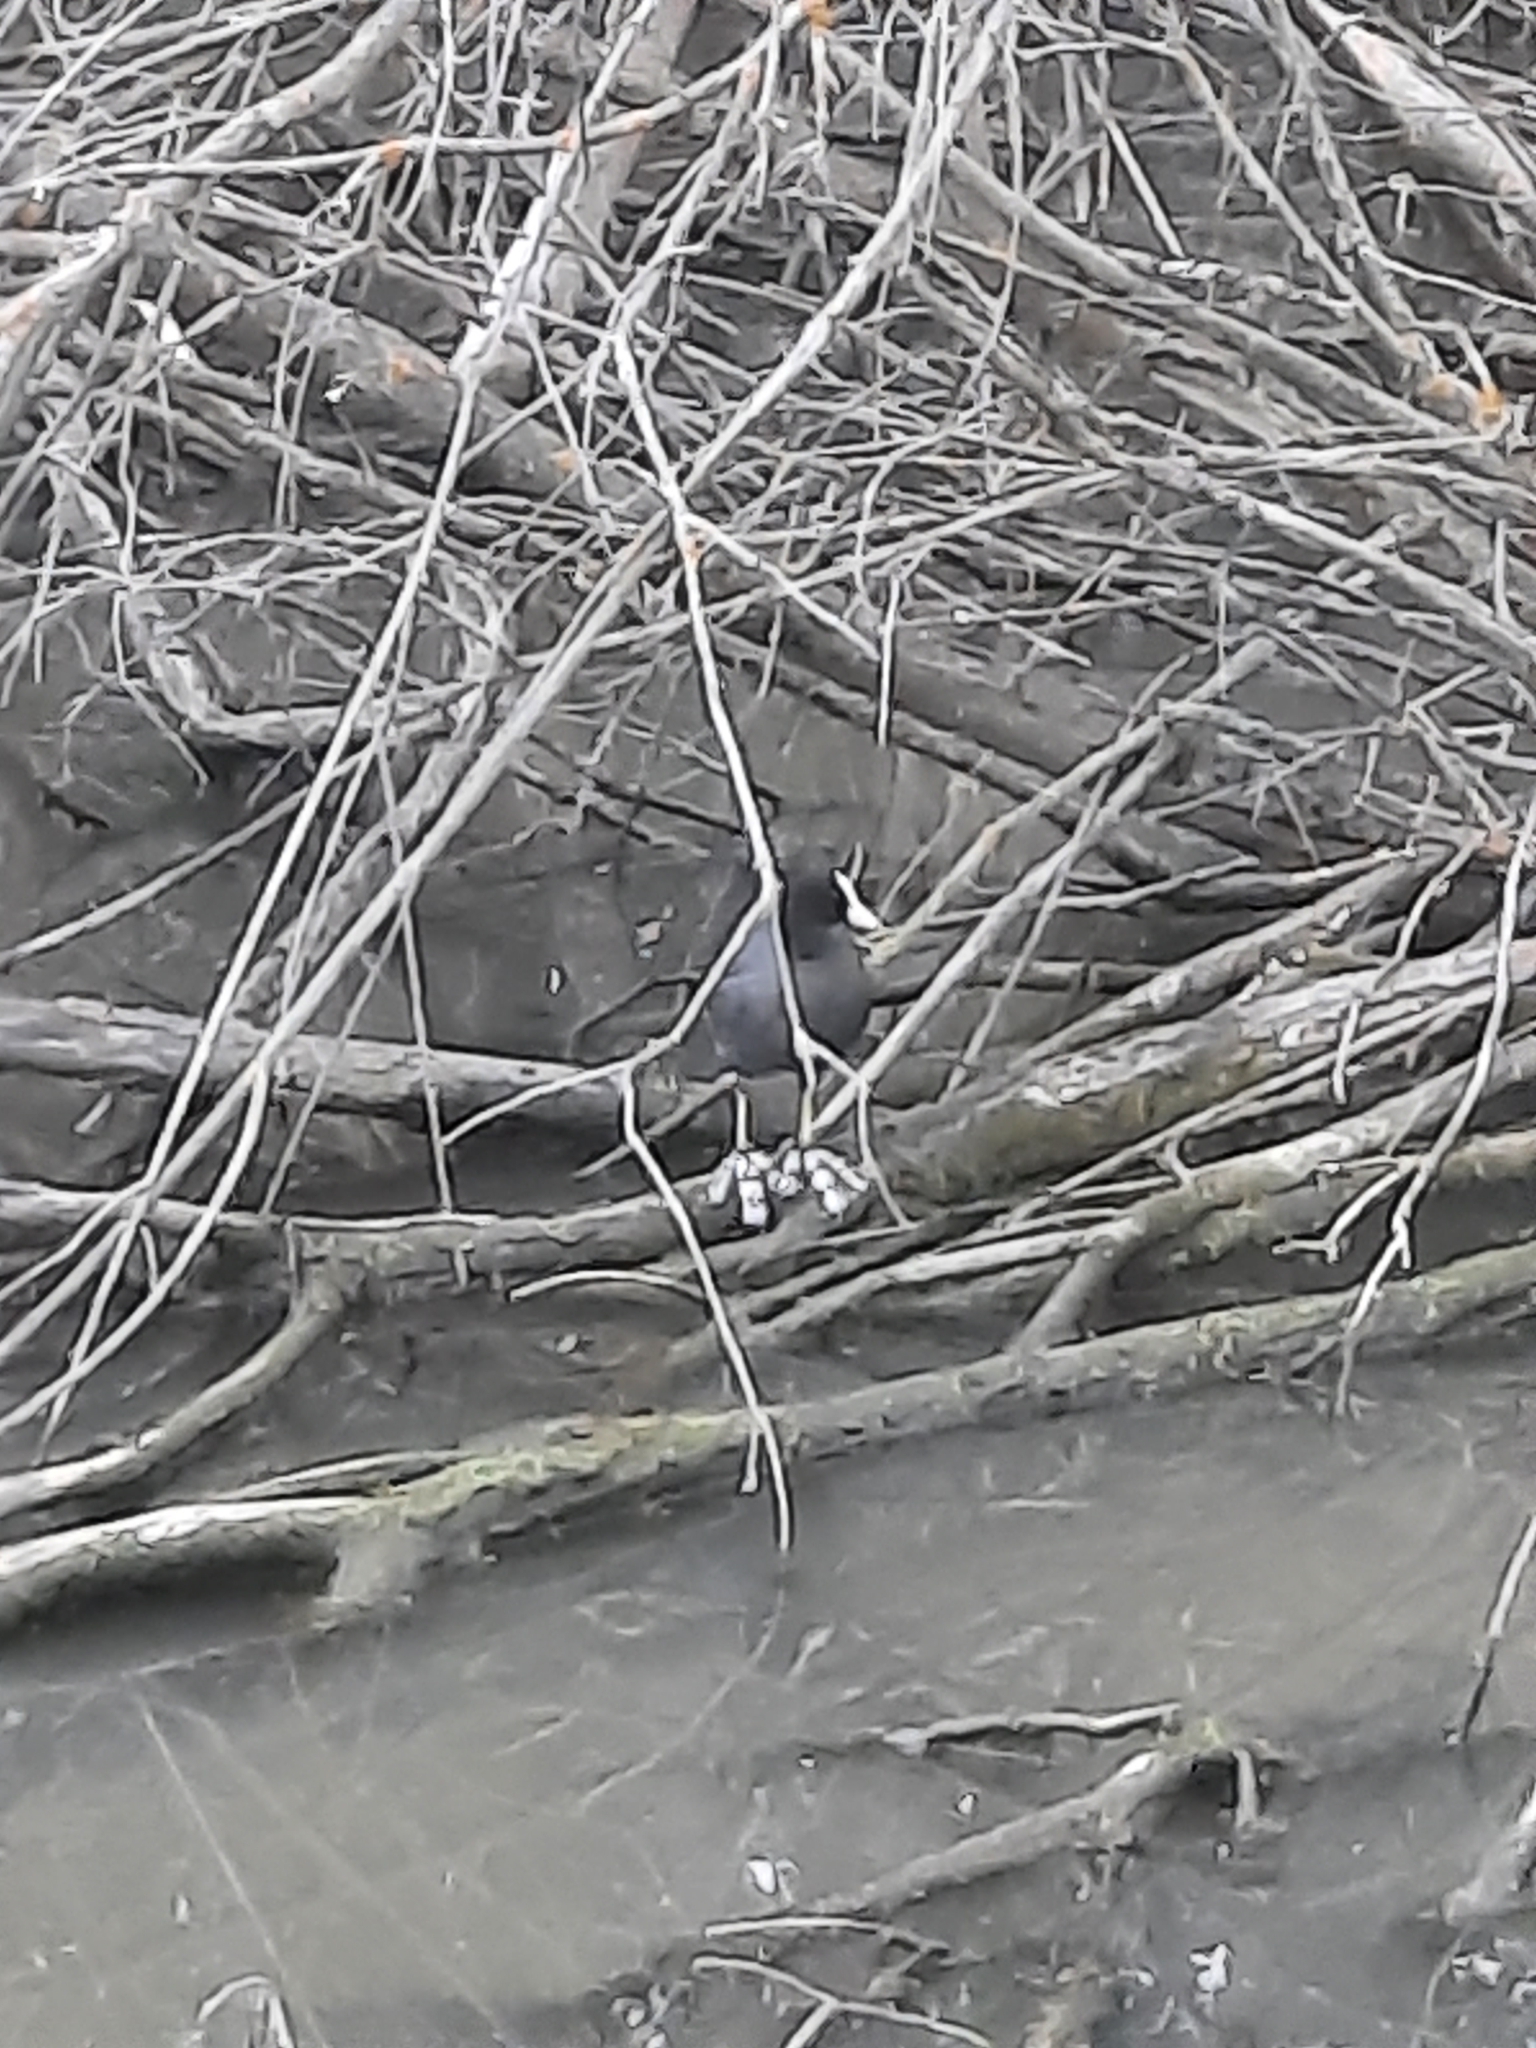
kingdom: Animalia
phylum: Chordata
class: Aves
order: Gruiformes
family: Rallidae
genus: Fulica
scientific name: Fulica atra
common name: Eurasian coot
